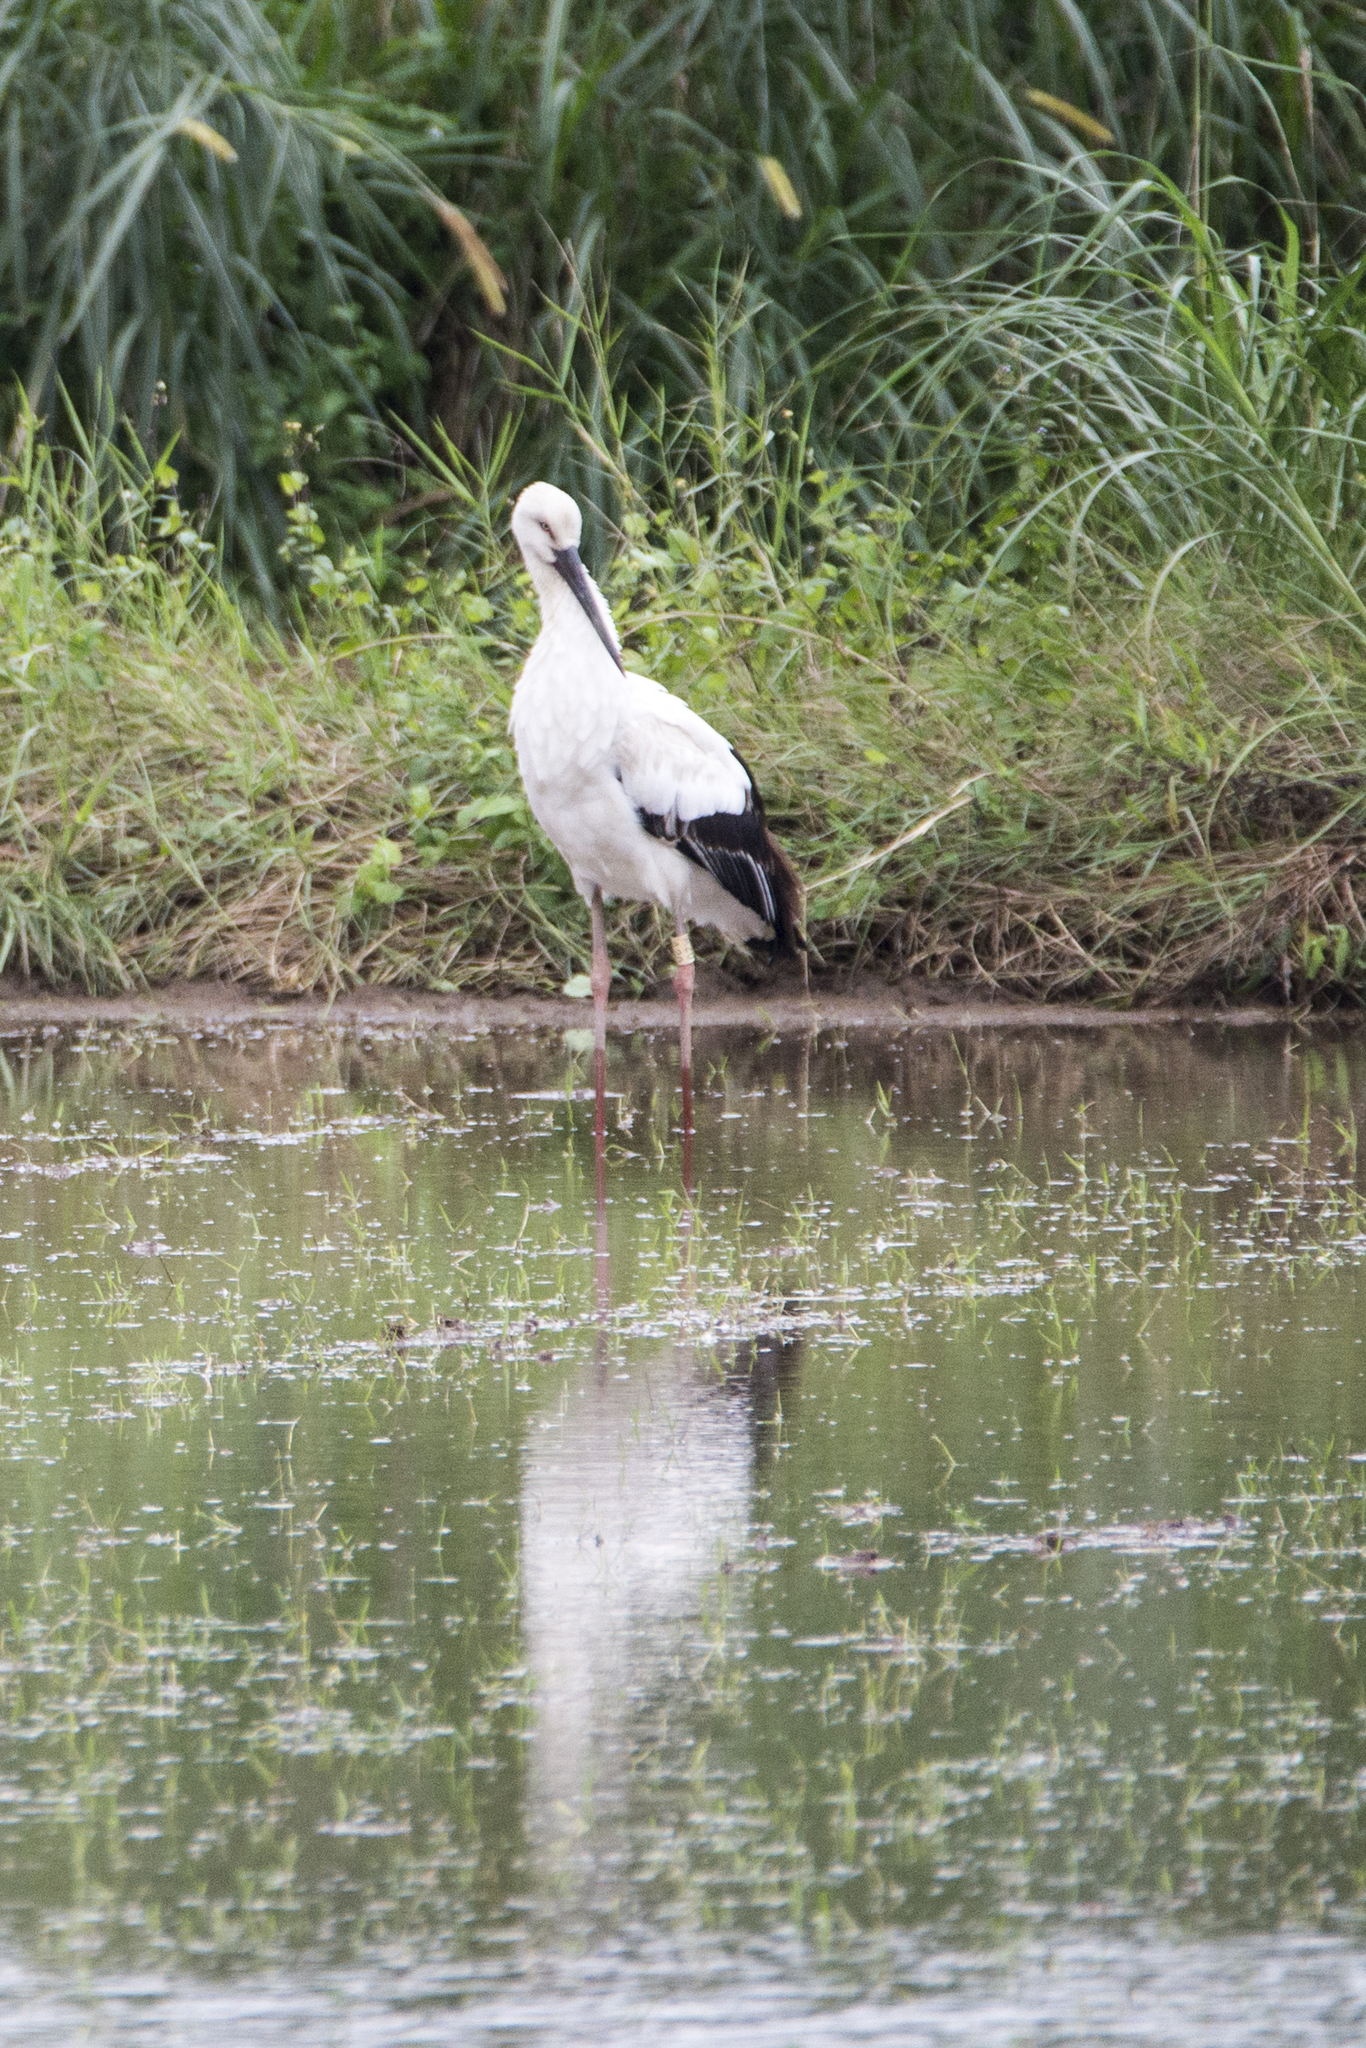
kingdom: Animalia
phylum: Chordata
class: Aves
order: Ciconiiformes
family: Ciconiidae
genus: Ciconia
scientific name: Ciconia boyciana
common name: Oriental stork
